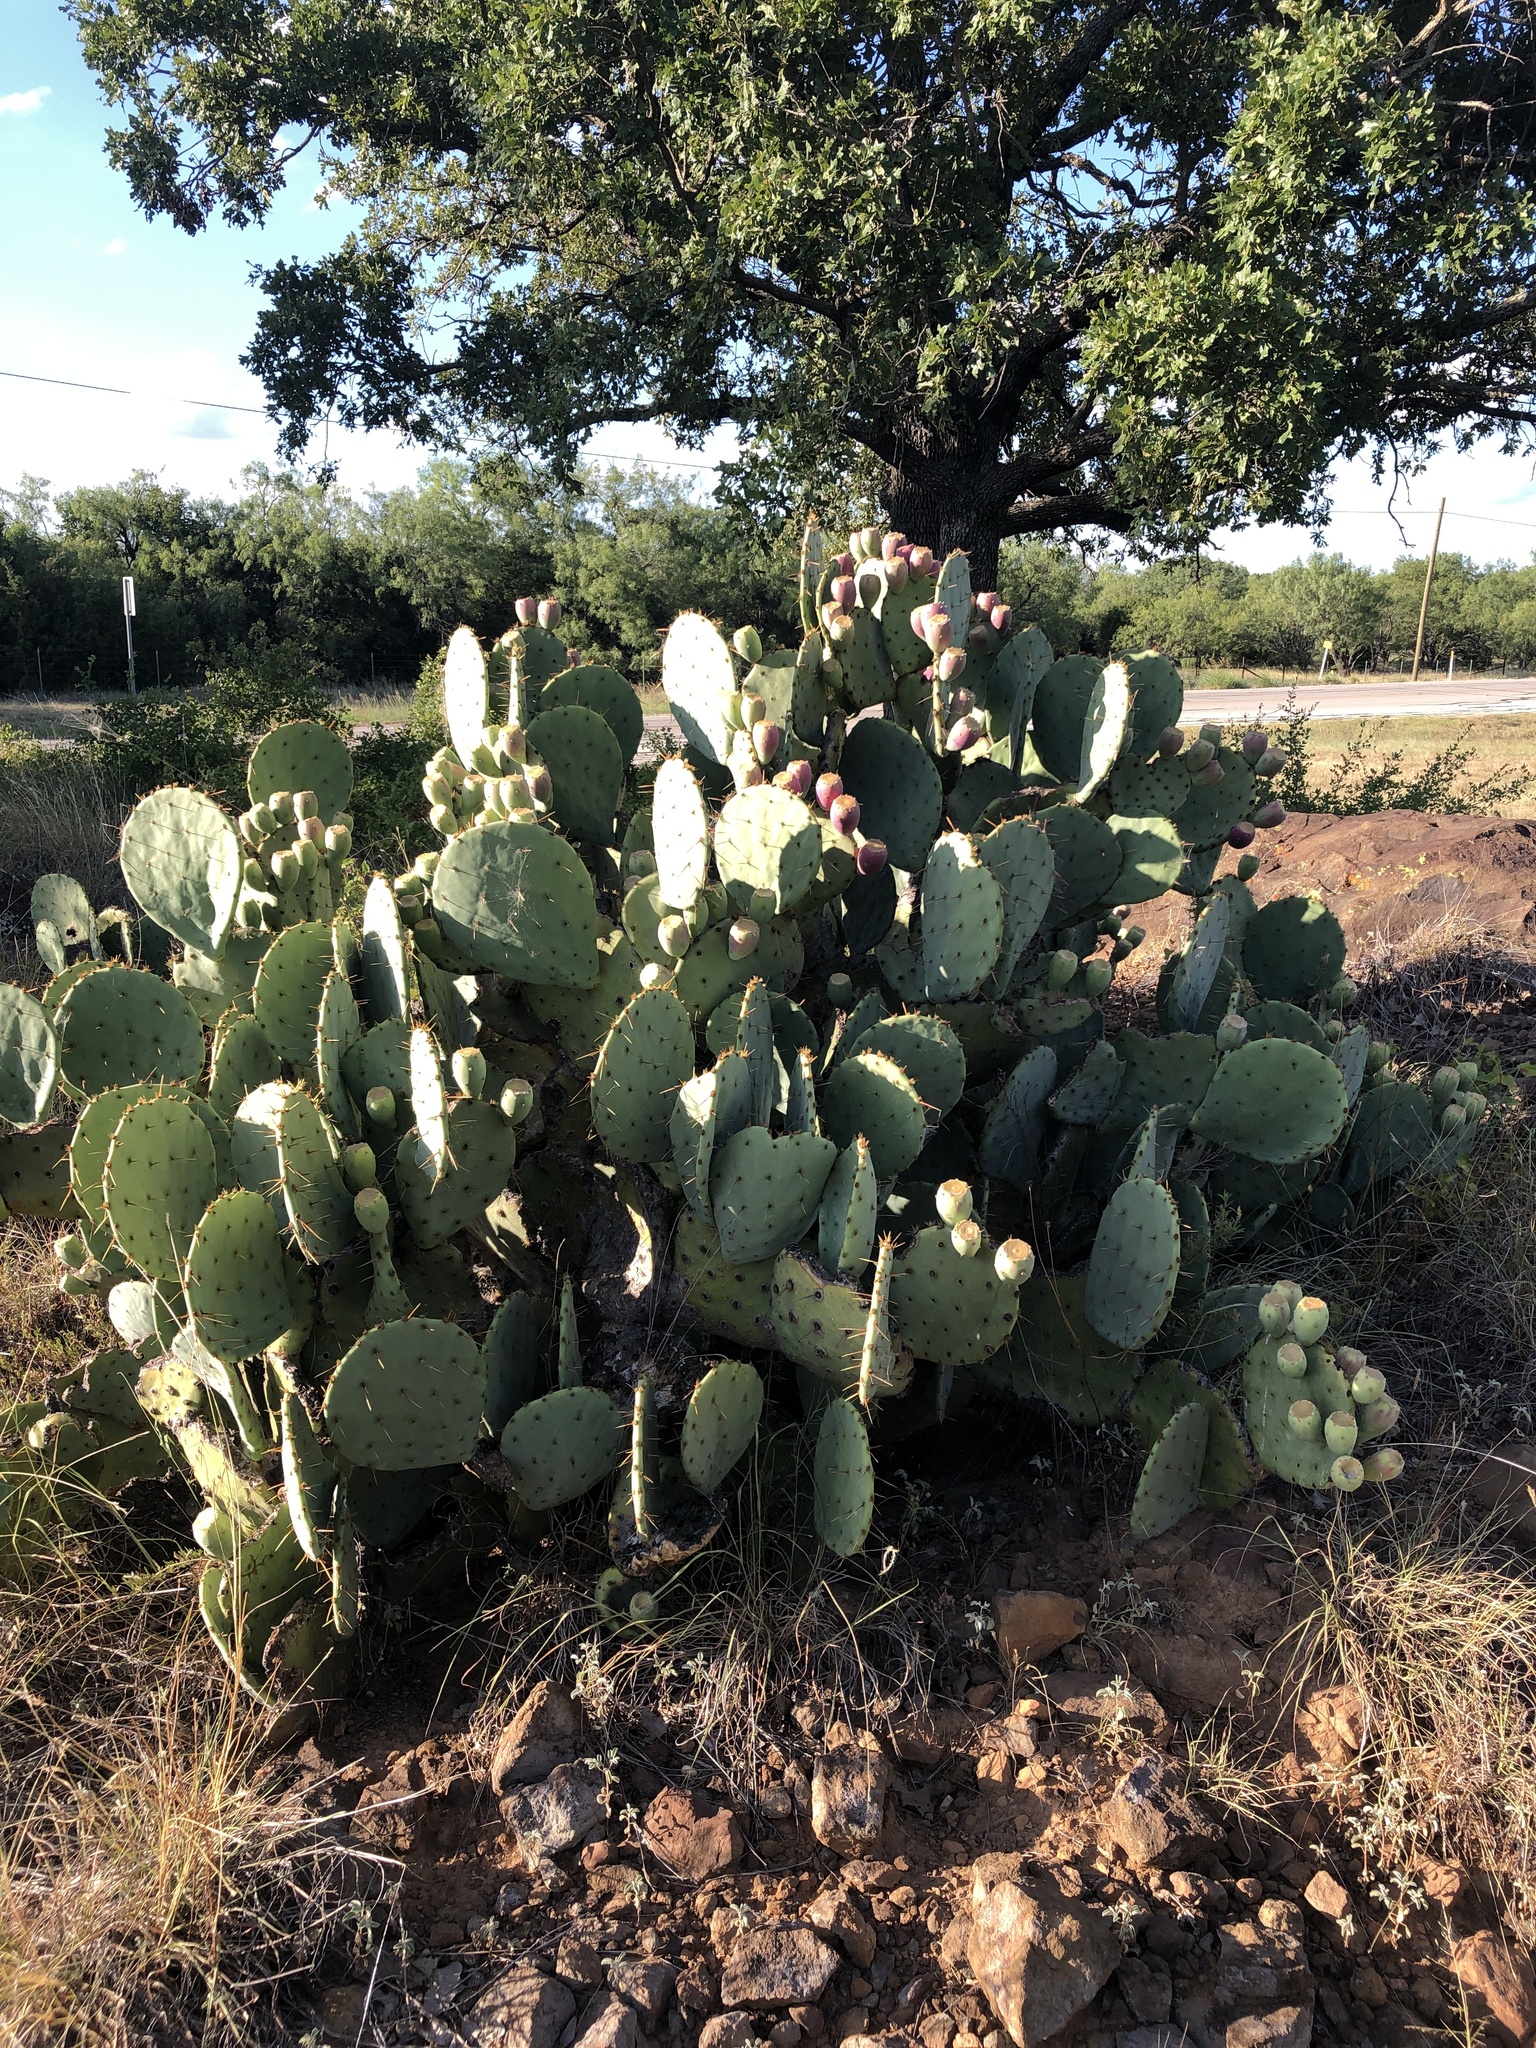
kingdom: Plantae
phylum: Tracheophyta
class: Magnoliopsida
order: Caryophyllales
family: Cactaceae
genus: Opuntia
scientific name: Opuntia orbiculata
